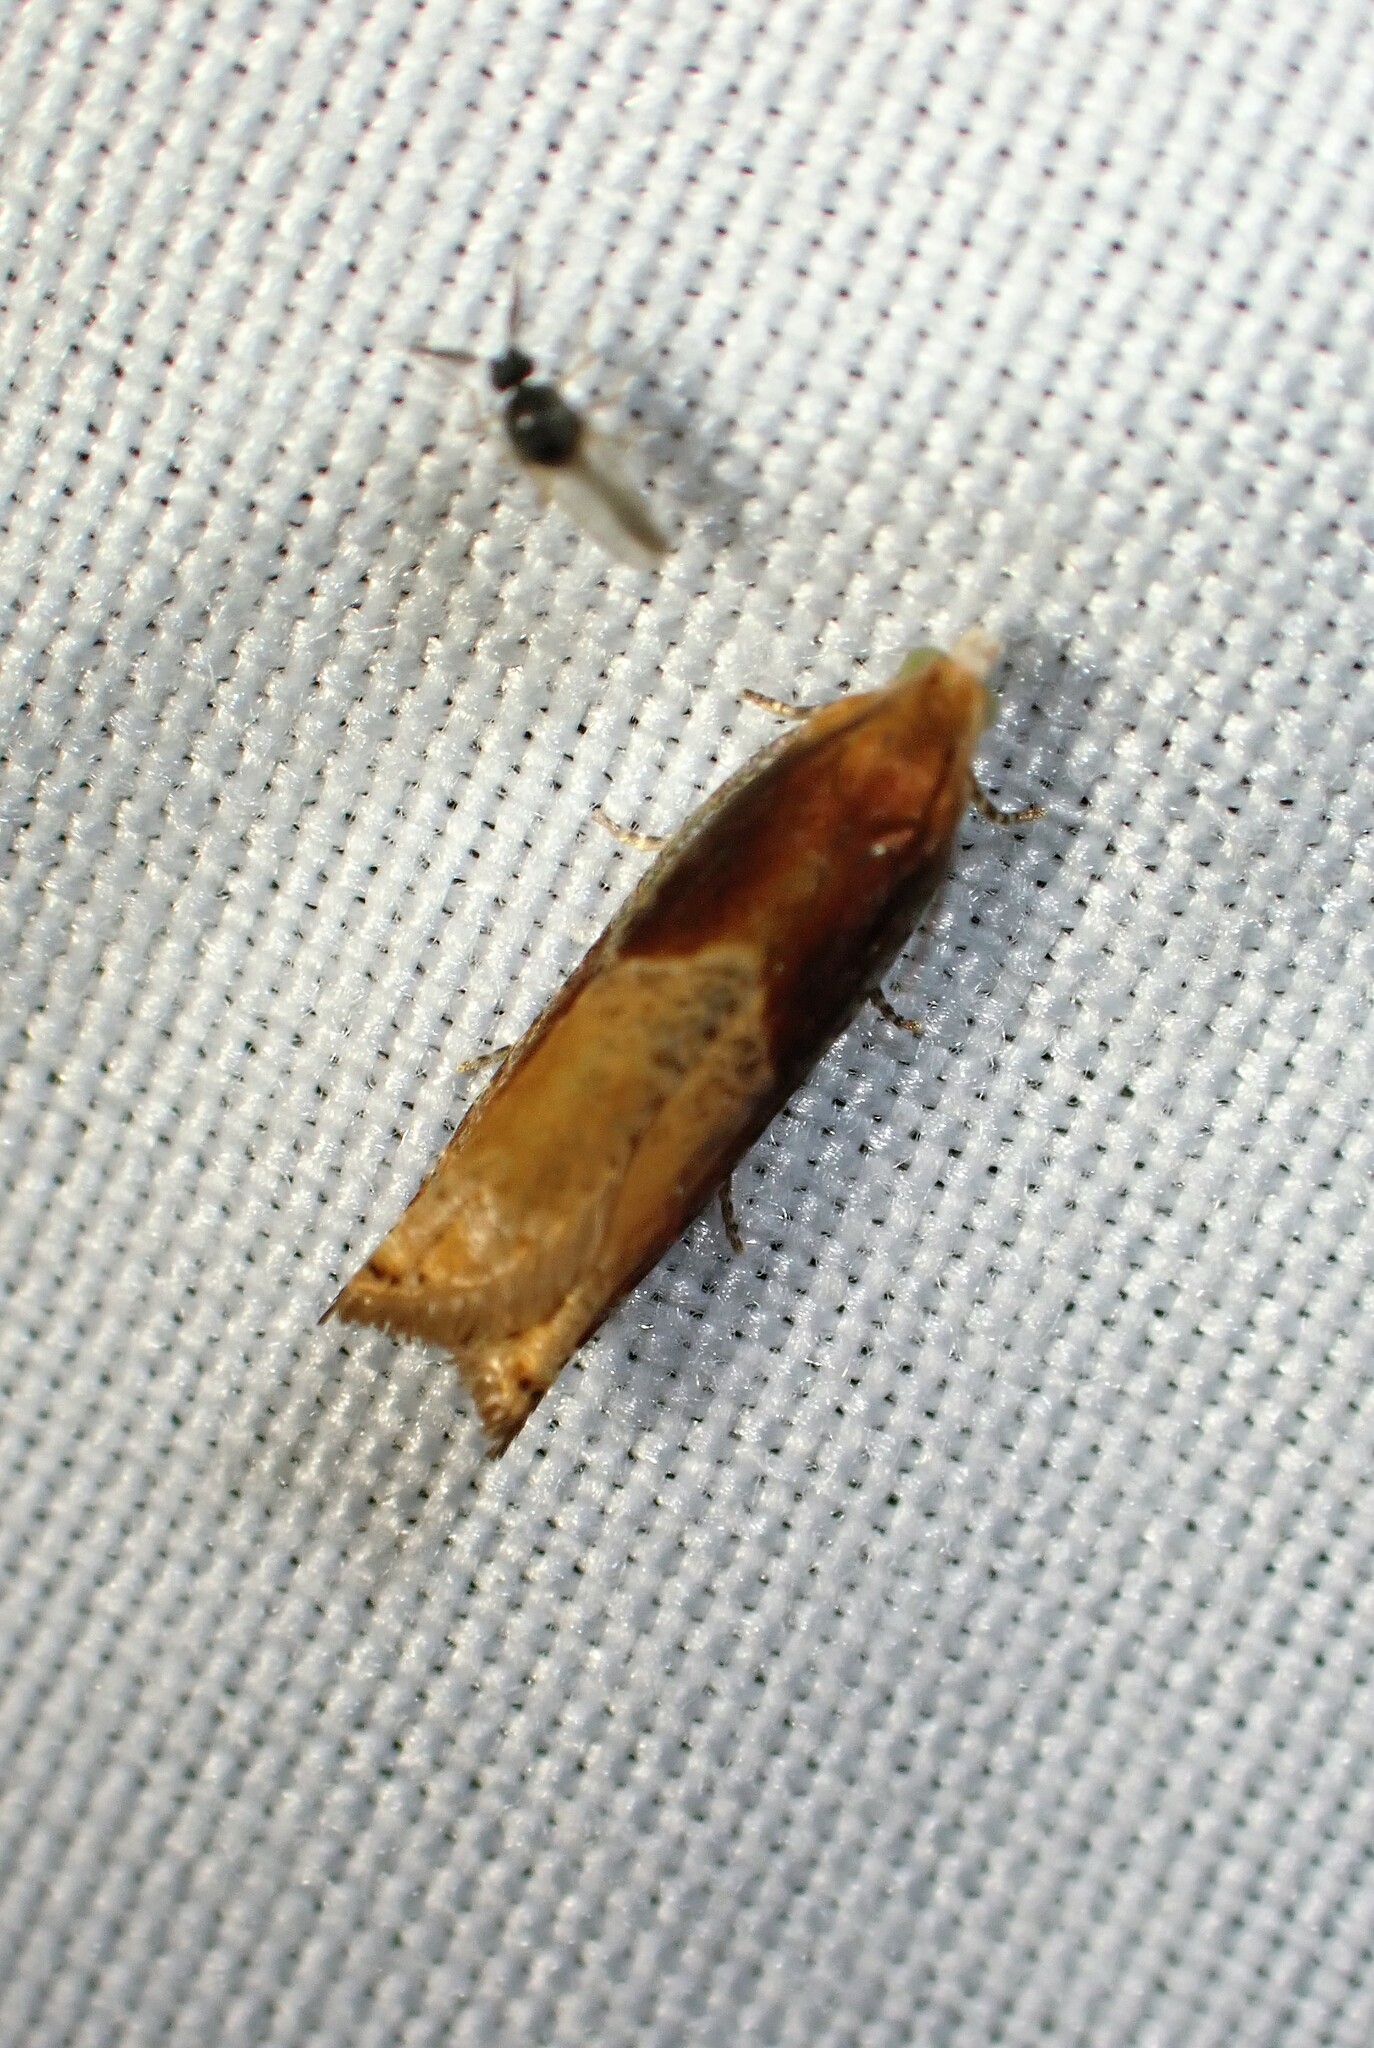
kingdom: Animalia
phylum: Arthropoda
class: Insecta
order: Lepidoptera
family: Tortricidae
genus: Ancylis
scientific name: Ancylis divisana
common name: Two-toned ancylis moth
